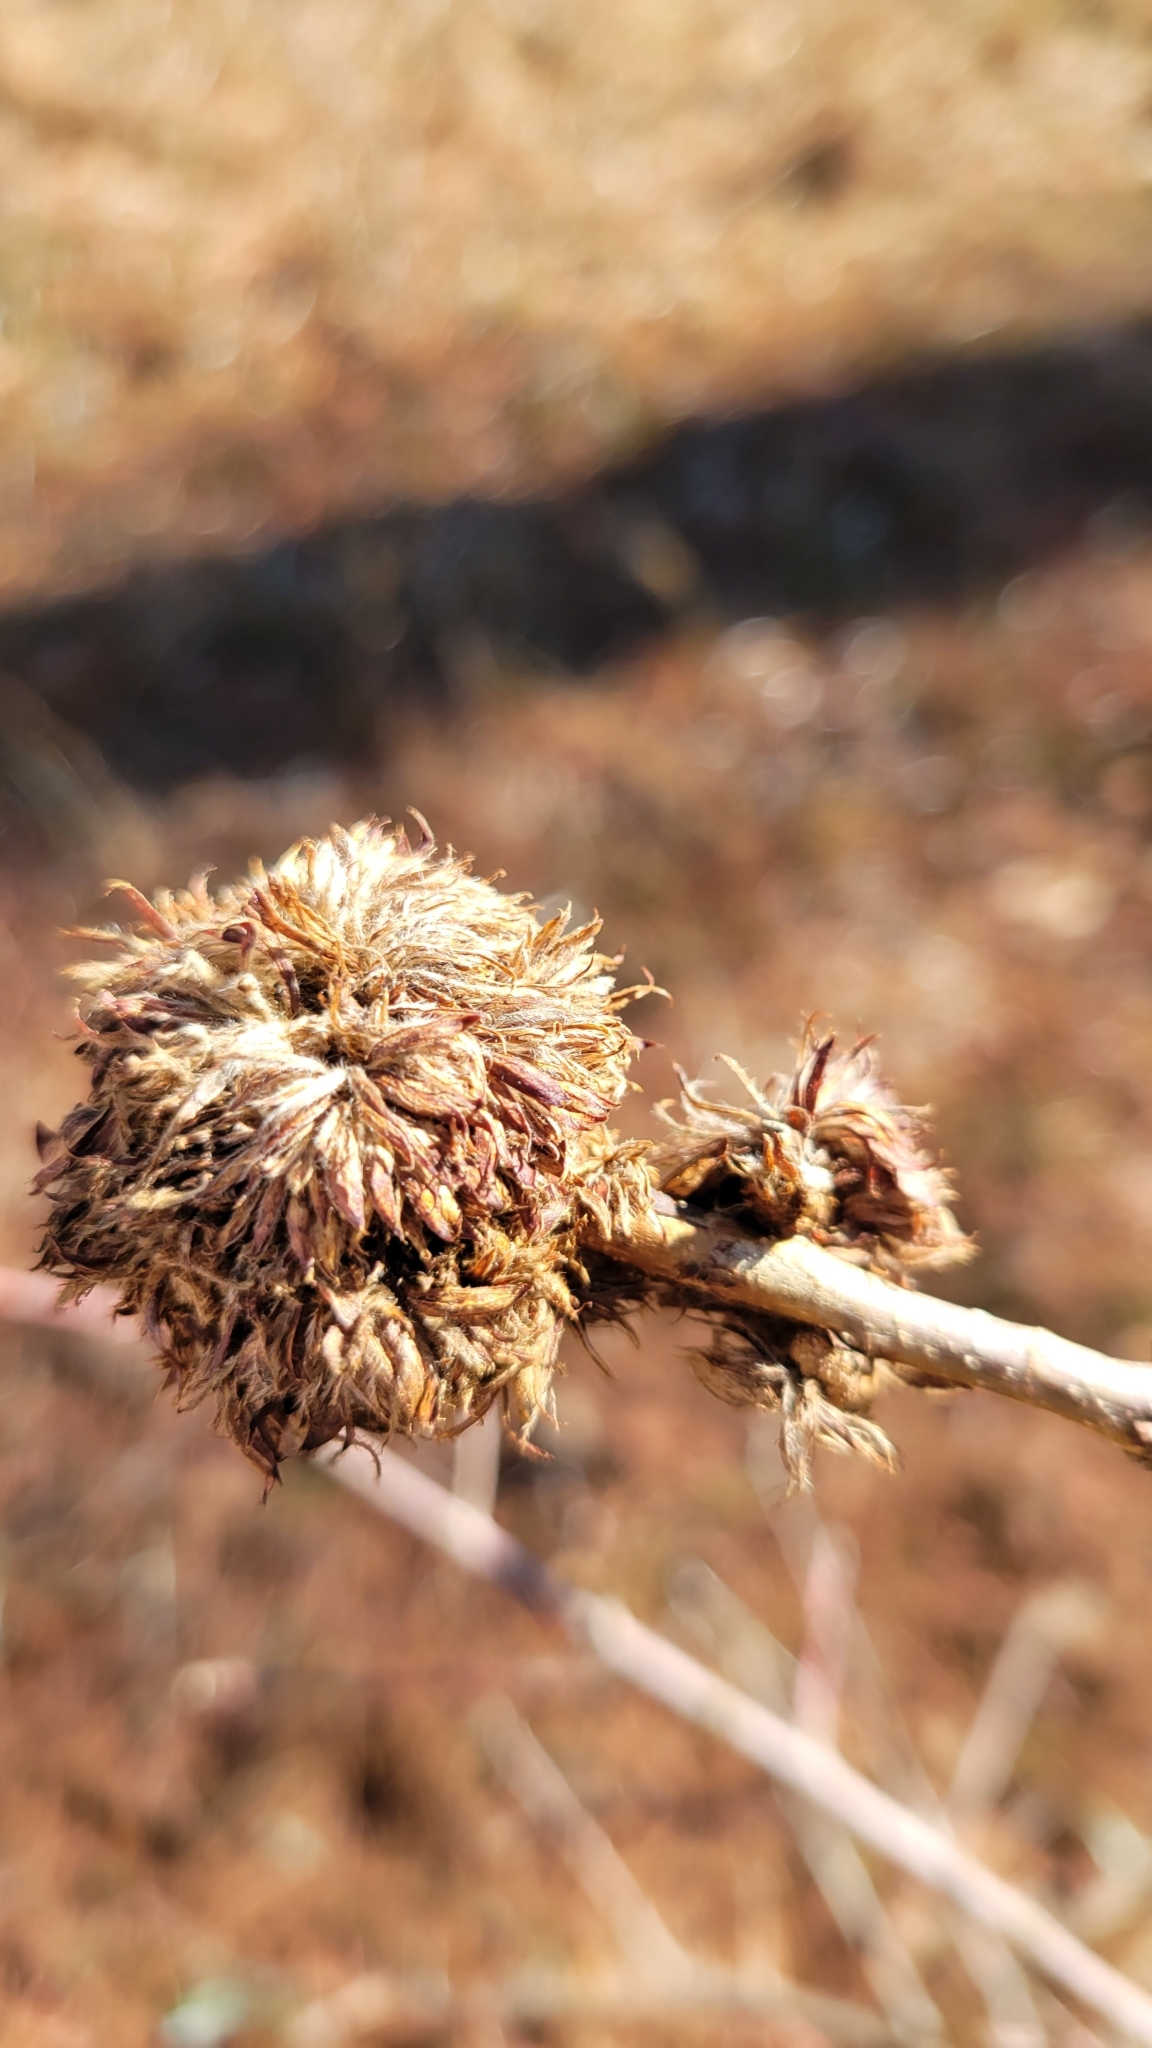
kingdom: Animalia
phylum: Arthropoda
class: Insecta
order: Hymenoptera
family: Cynipidae
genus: Andricus
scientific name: Andricus
